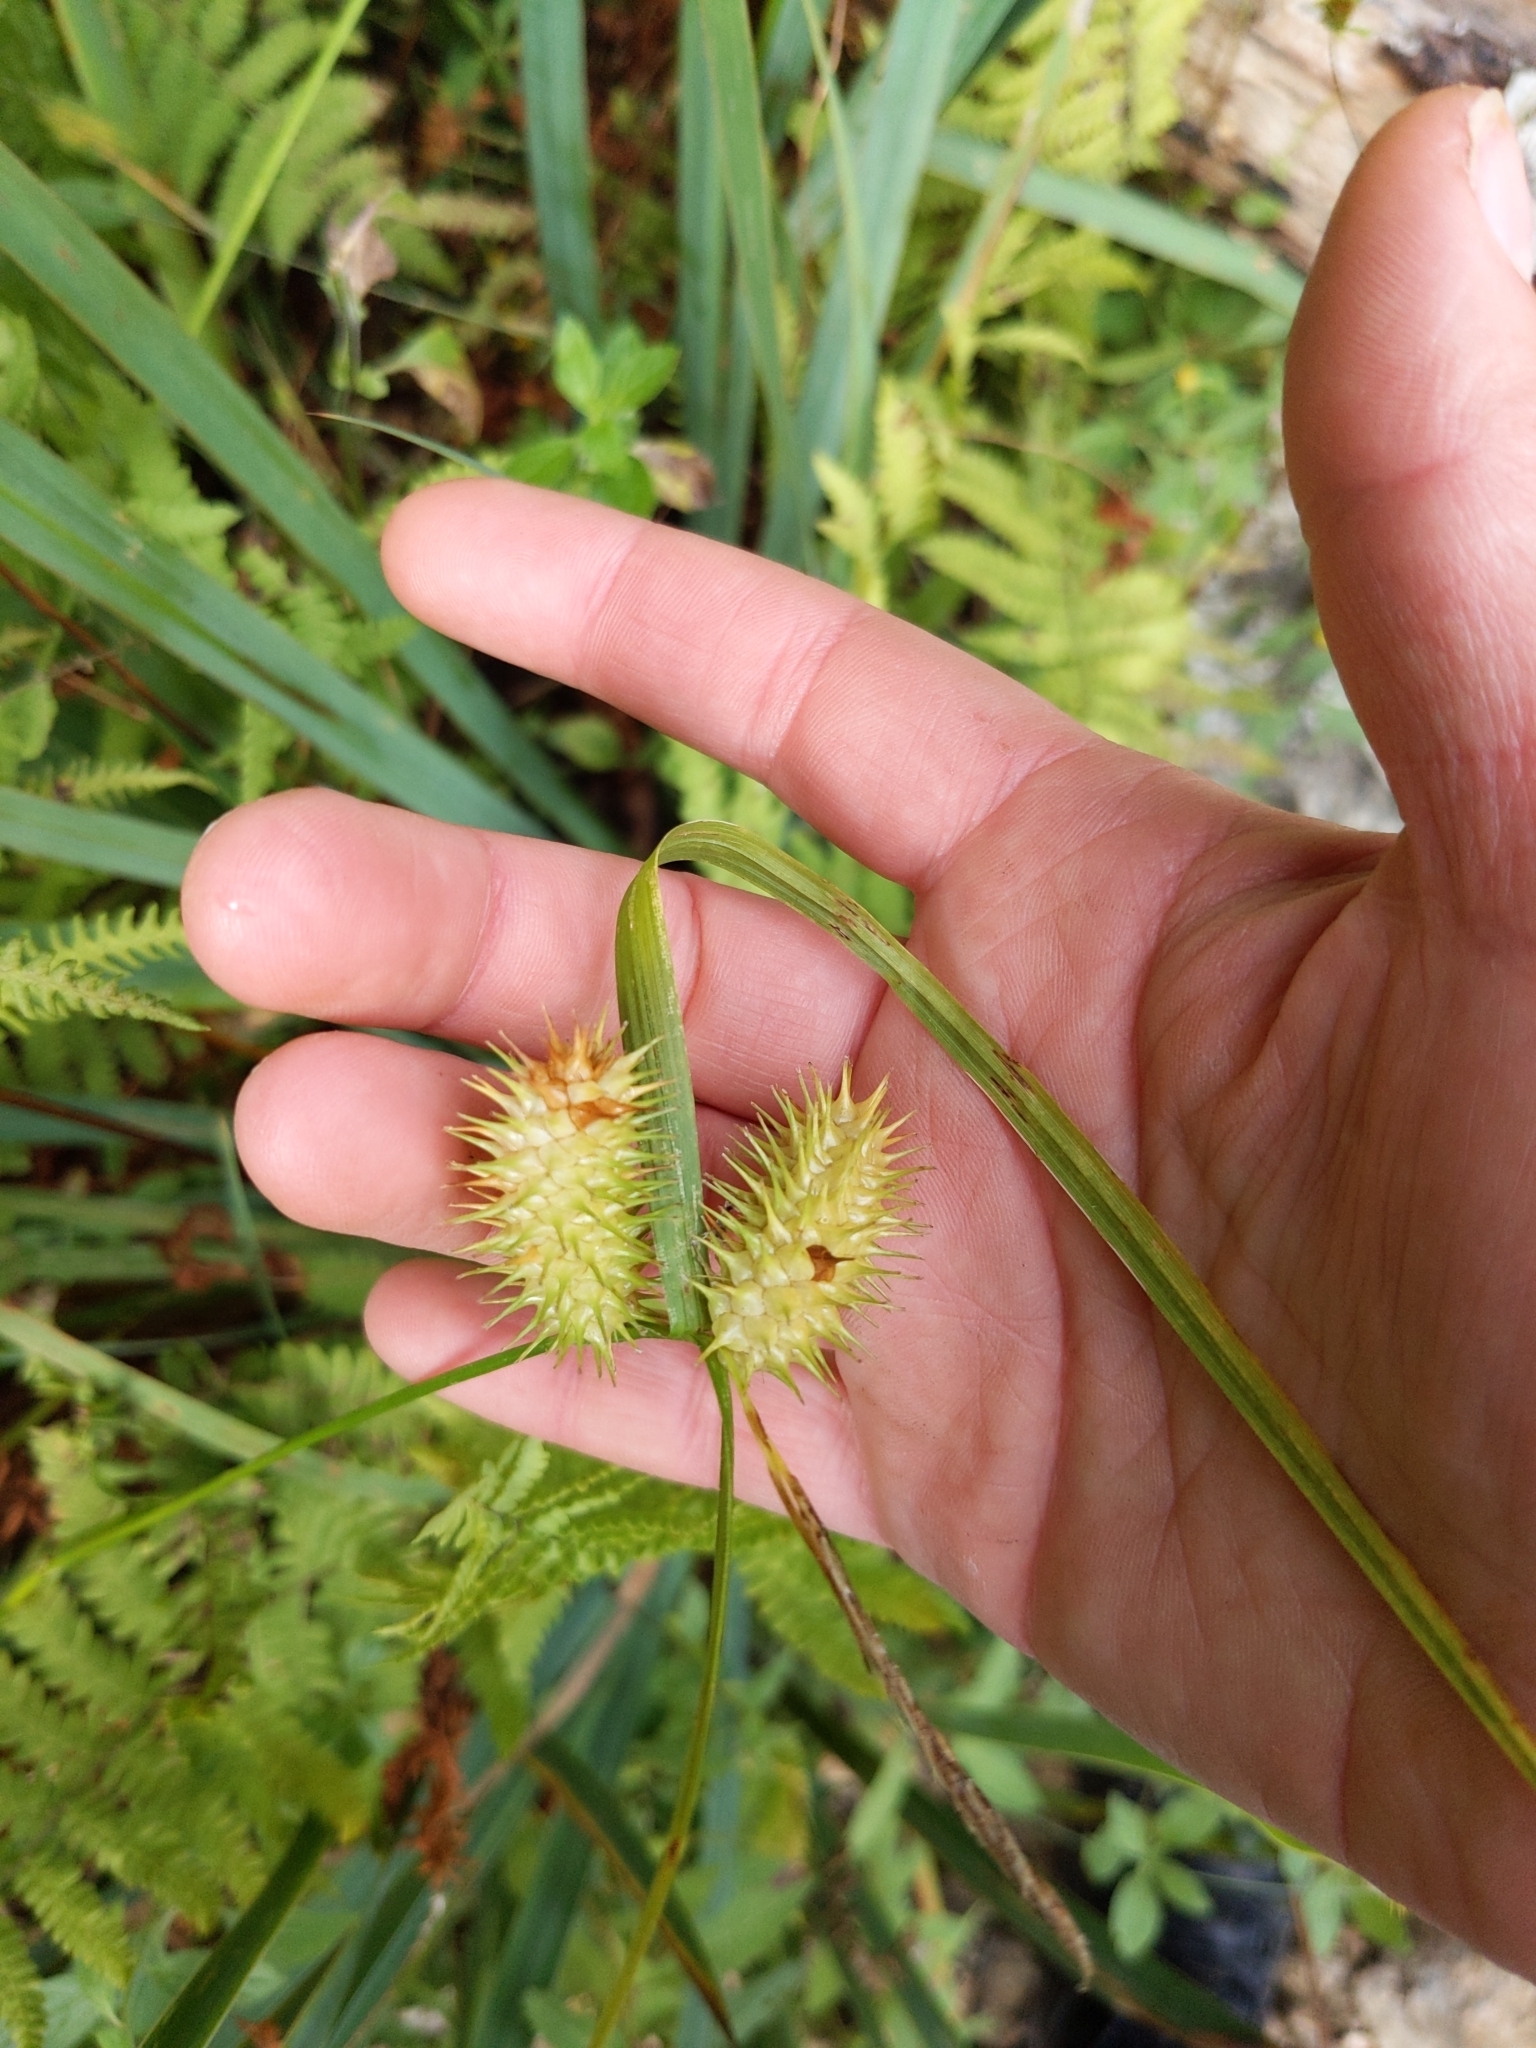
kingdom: Plantae
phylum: Tracheophyta
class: Liliopsida
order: Poales
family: Cyperaceae
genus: Carex
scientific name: Carex lurida
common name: Sallow sedge
